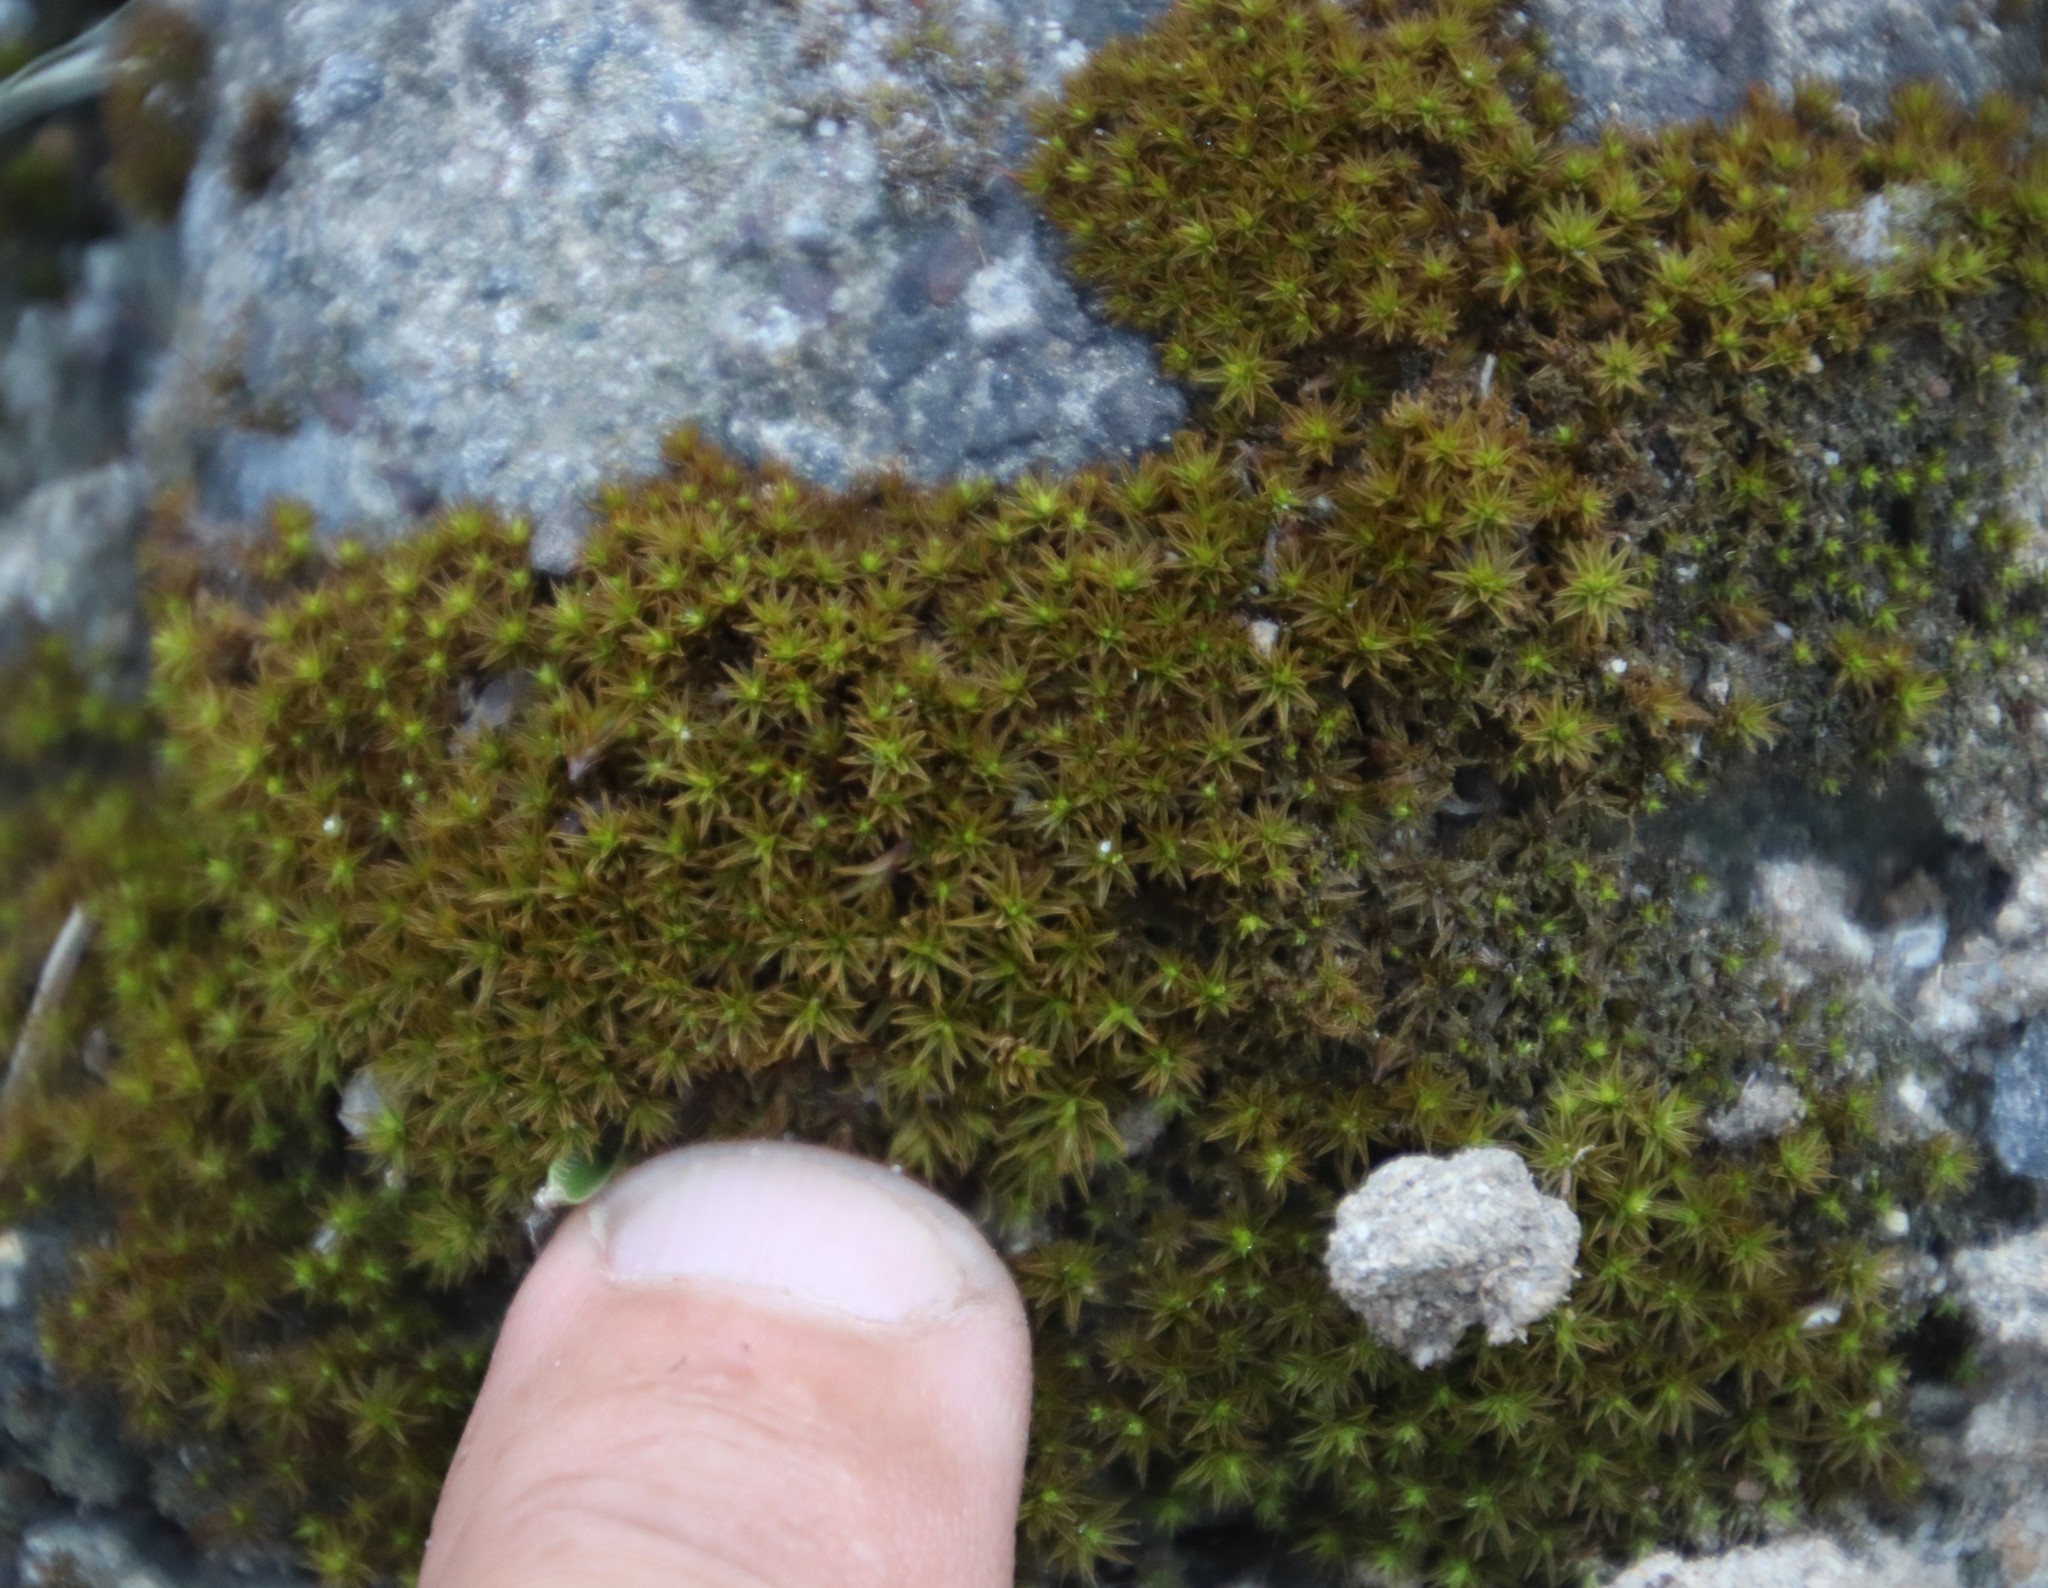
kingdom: Plantae
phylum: Bryophyta
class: Bryopsida
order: Pottiales
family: Pottiaceae
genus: Gertrudiella
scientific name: Gertrudiella xanthocarpa
